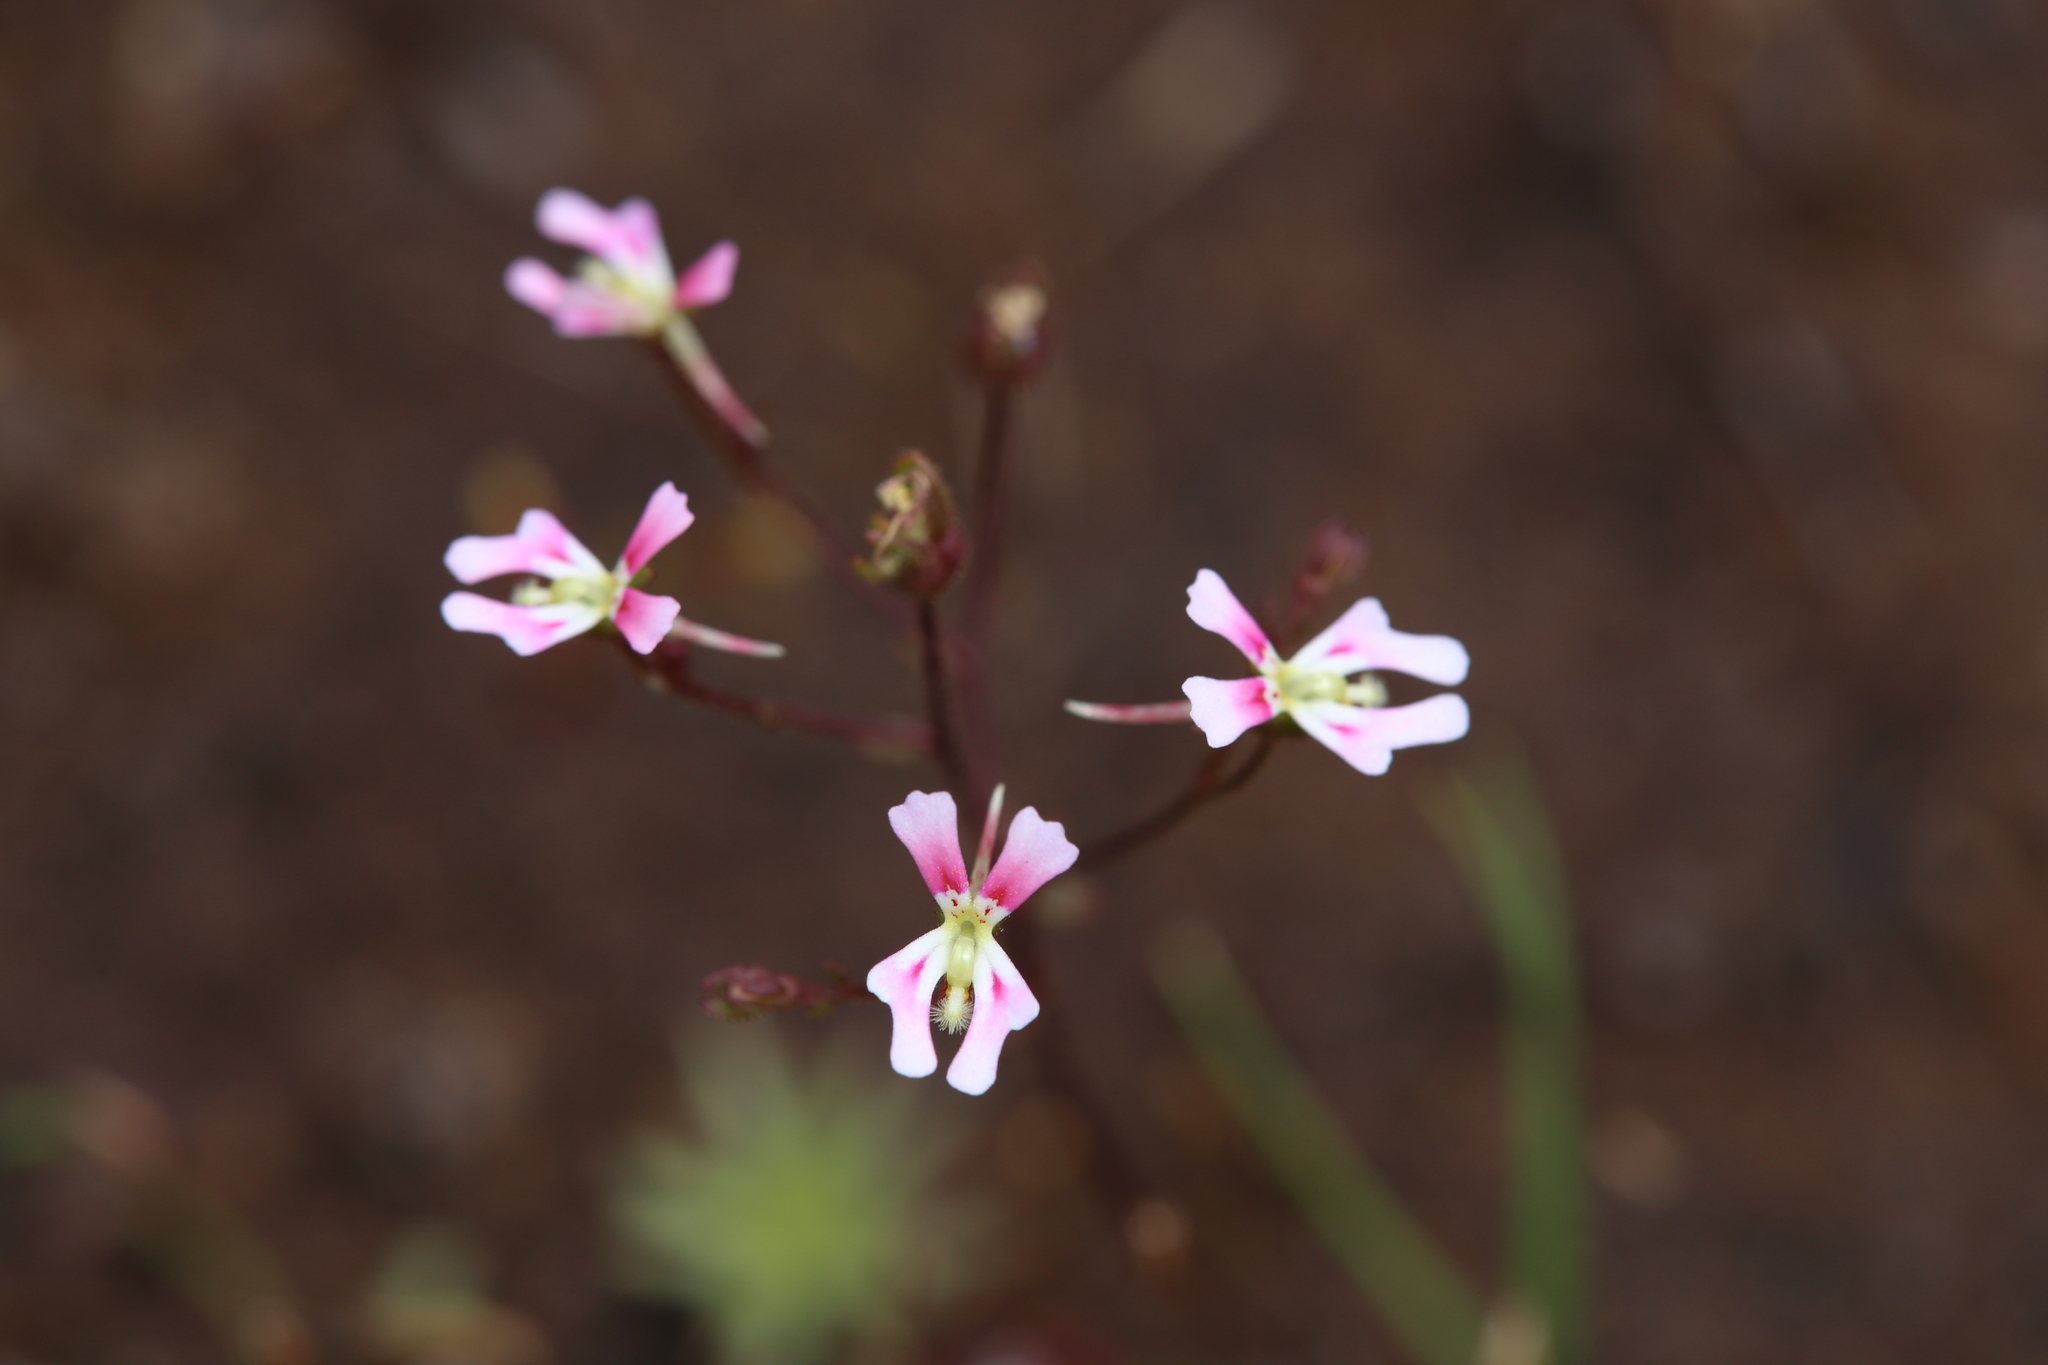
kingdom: Plantae
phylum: Tracheophyta
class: Magnoliopsida
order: Asterales
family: Stylidiaceae
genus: Stylidium
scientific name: Stylidium calcaratum
